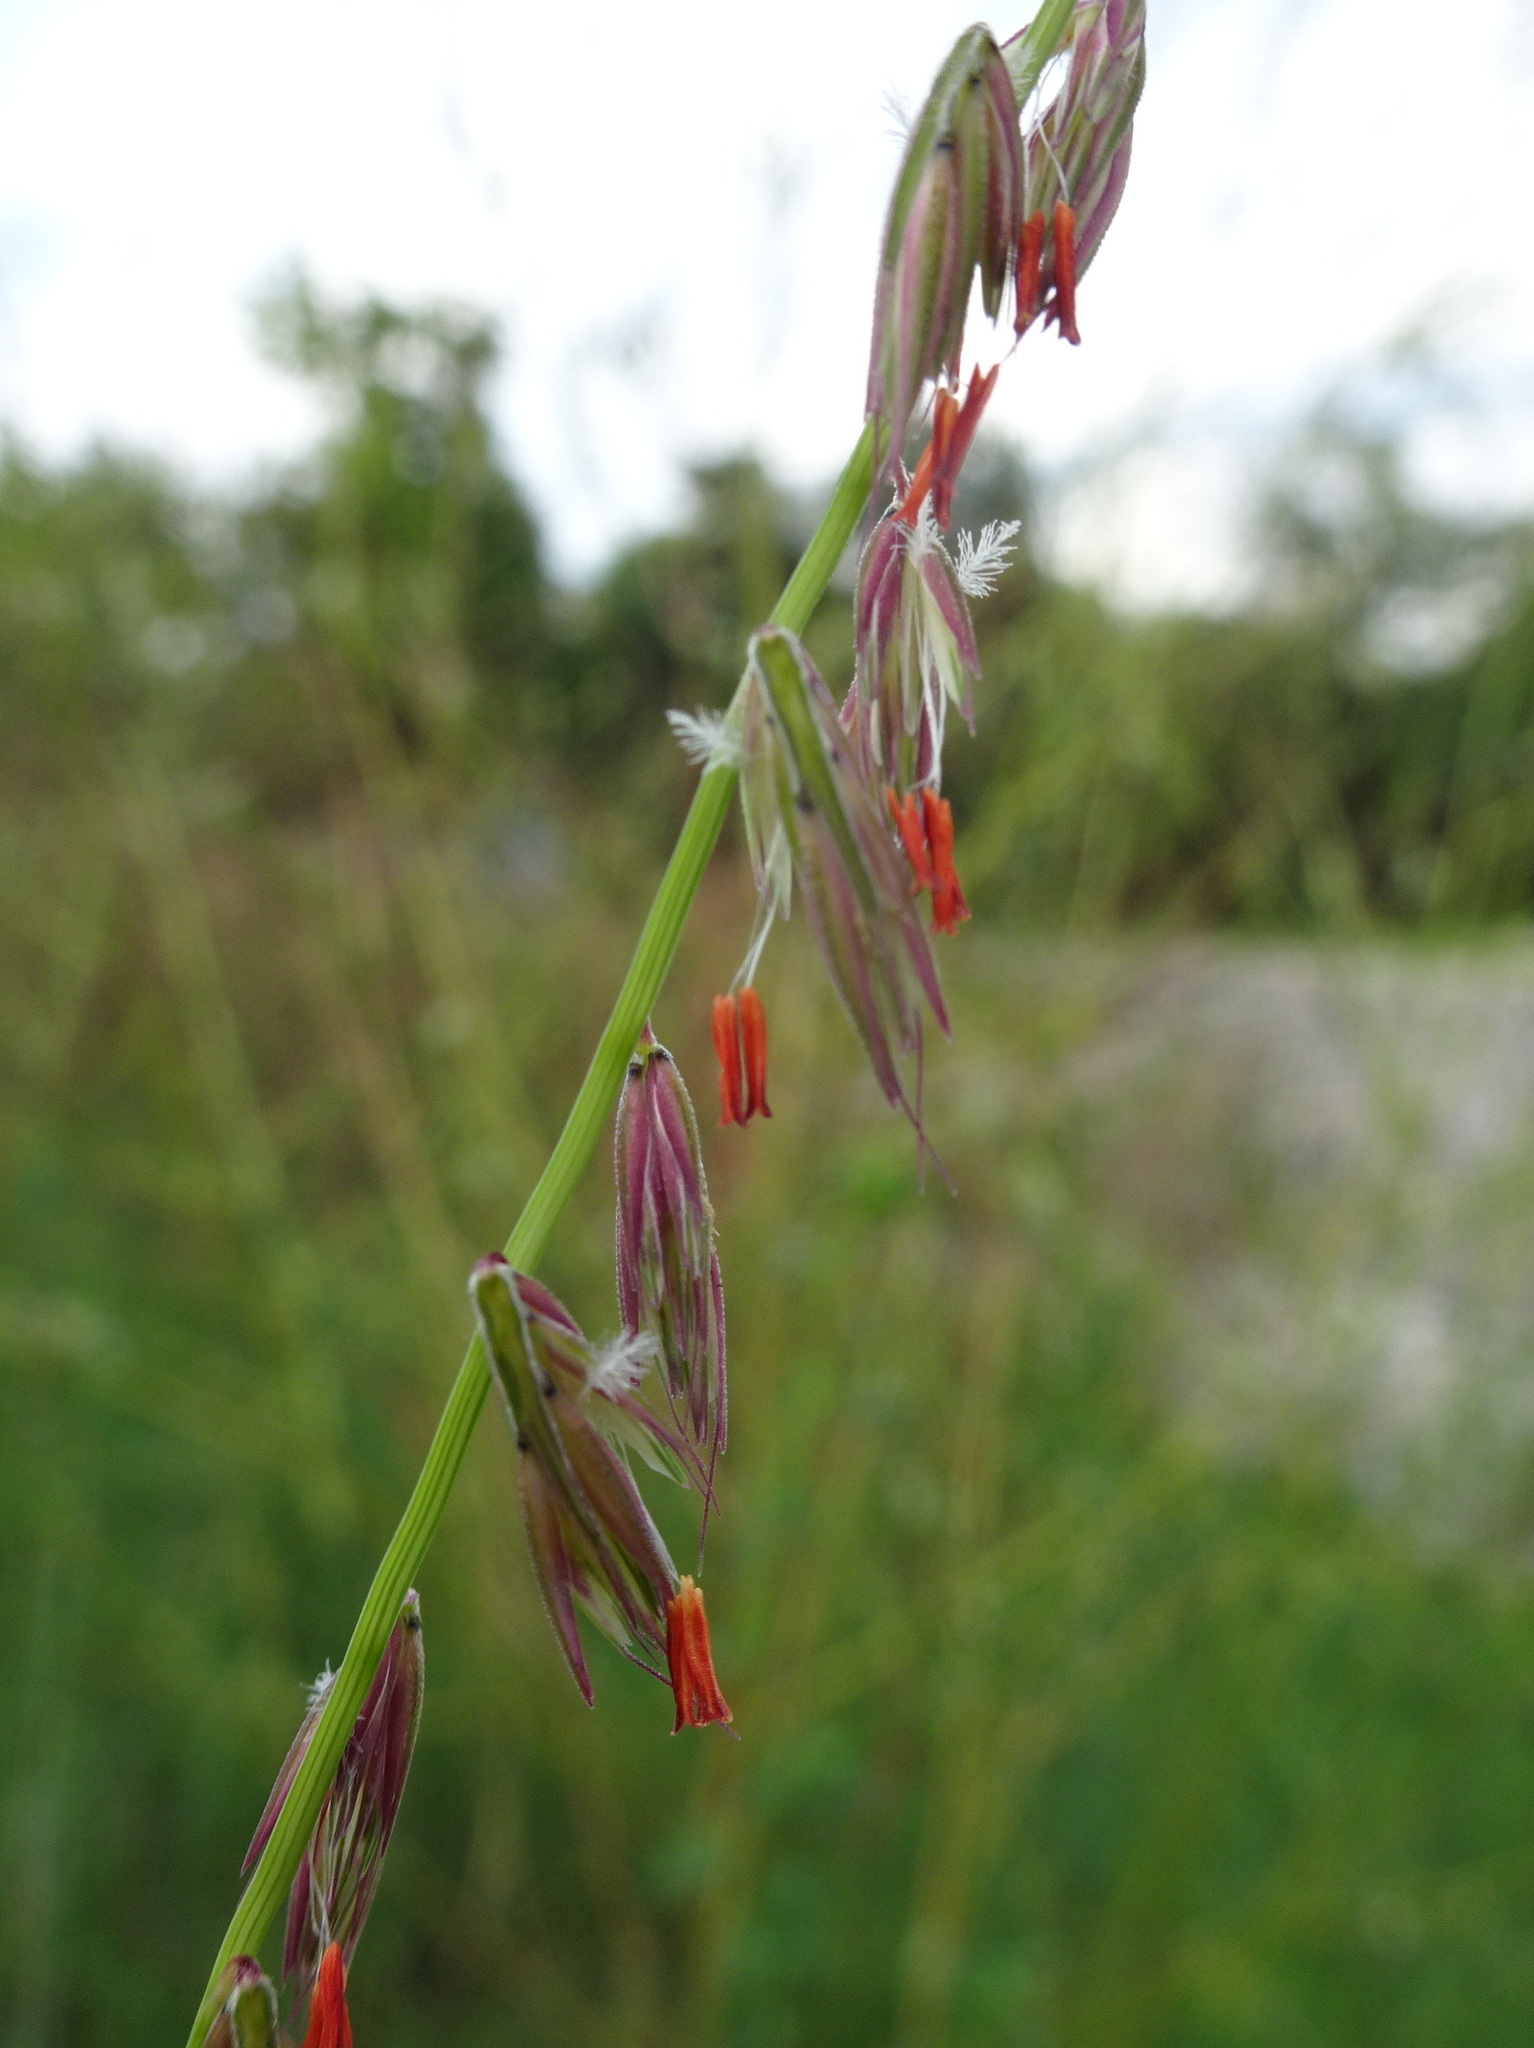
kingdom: Plantae
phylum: Tracheophyta
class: Liliopsida
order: Poales
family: Poaceae
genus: Bouteloua
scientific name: Bouteloua curtipendula
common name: Side-oats grama
